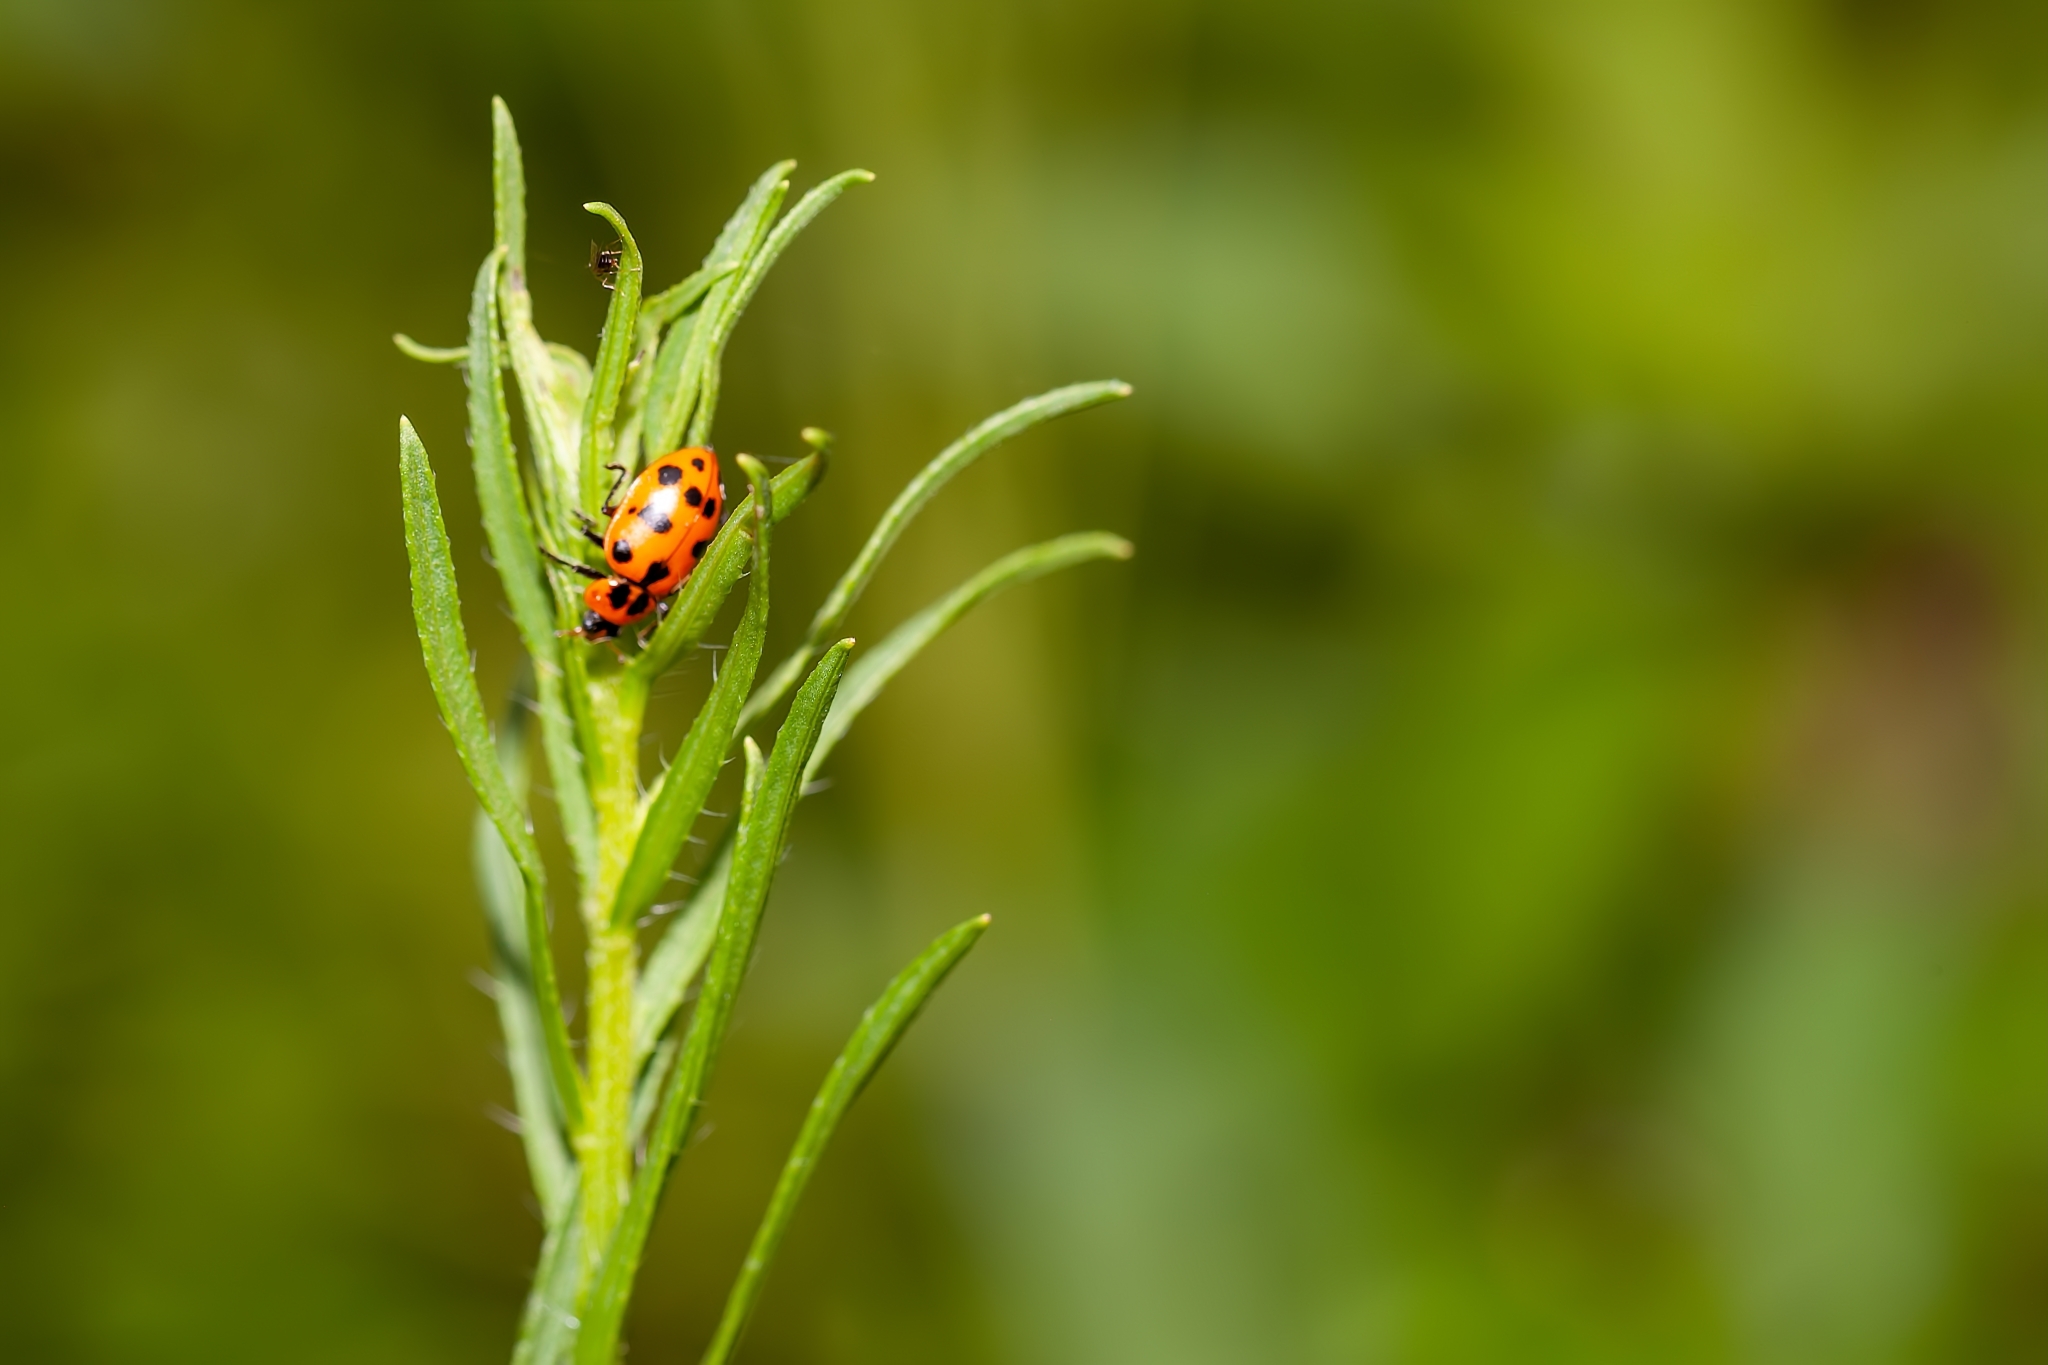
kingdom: Animalia
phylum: Arthropoda
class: Insecta
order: Coleoptera
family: Coccinellidae
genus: Coleomegilla
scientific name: Coleomegilla maculata
